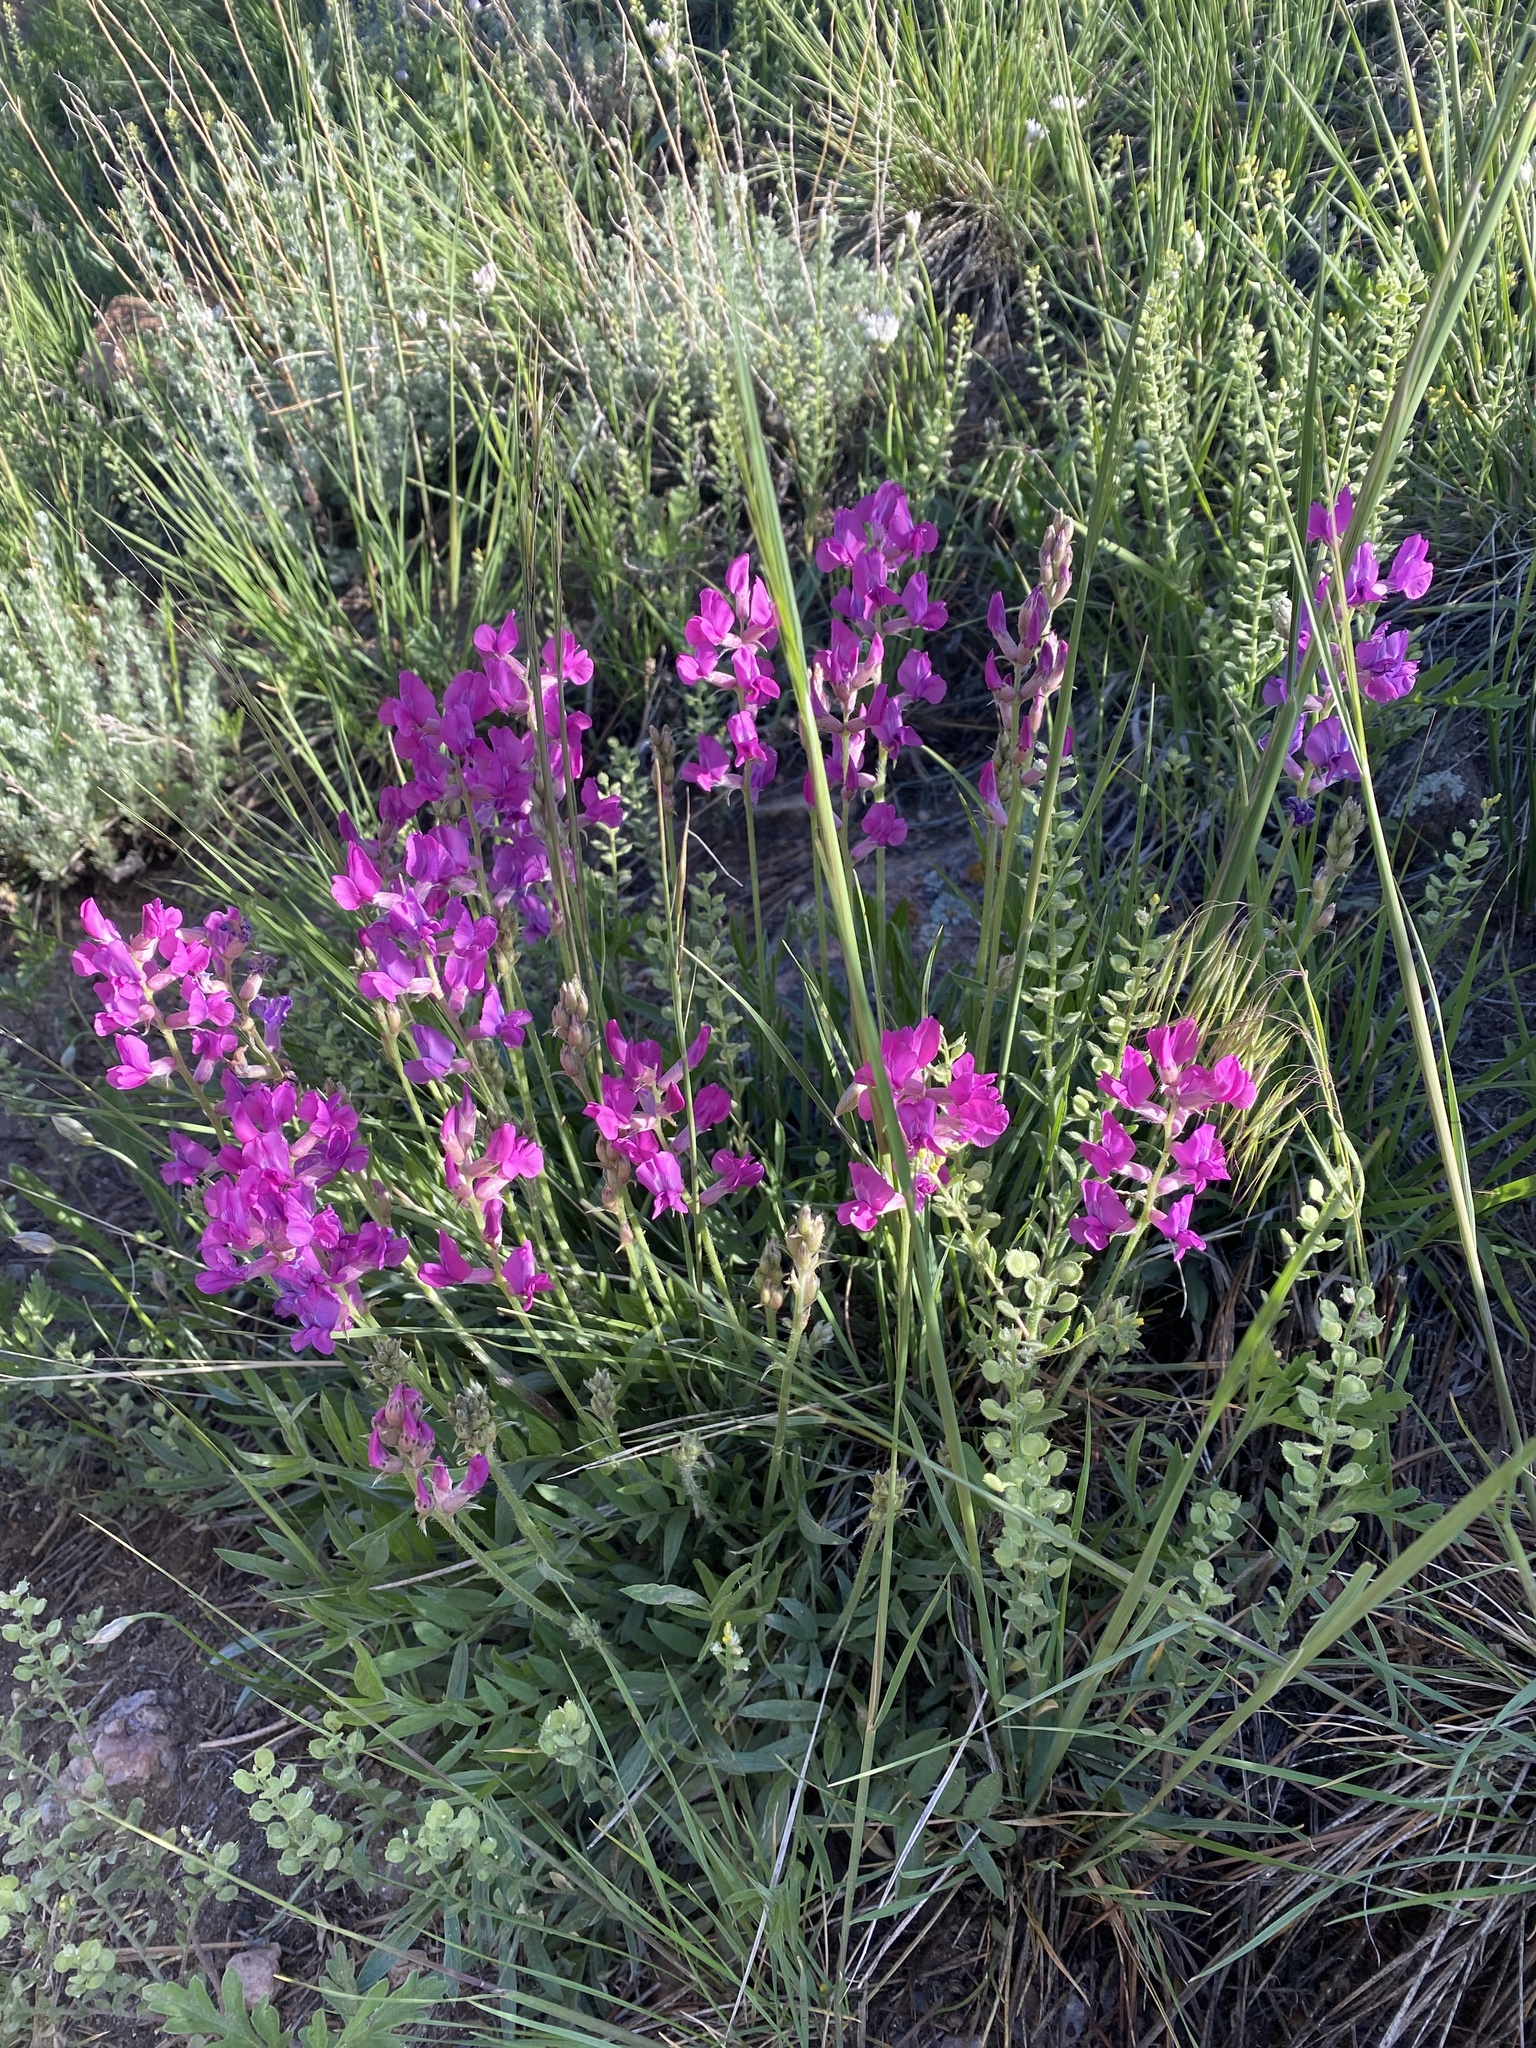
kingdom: Plantae
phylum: Tracheophyta
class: Magnoliopsida
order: Fabales
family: Fabaceae
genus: Oxytropis
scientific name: Oxytropis lambertii
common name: Purple locoweed
